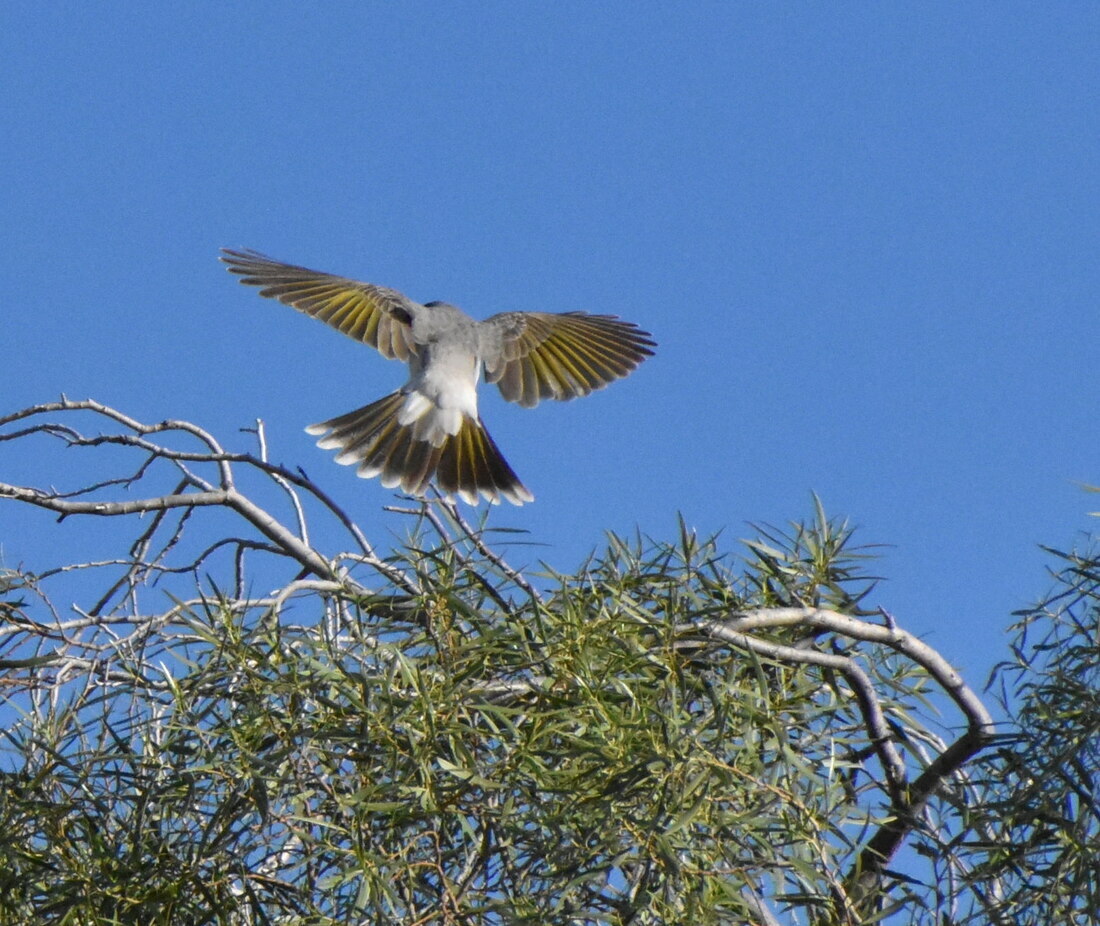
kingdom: Animalia
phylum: Chordata
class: Aves
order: Passeriformes
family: Meliphagidae
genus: Manorina
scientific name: Manorina flavigula
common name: Yellow-throated miner
